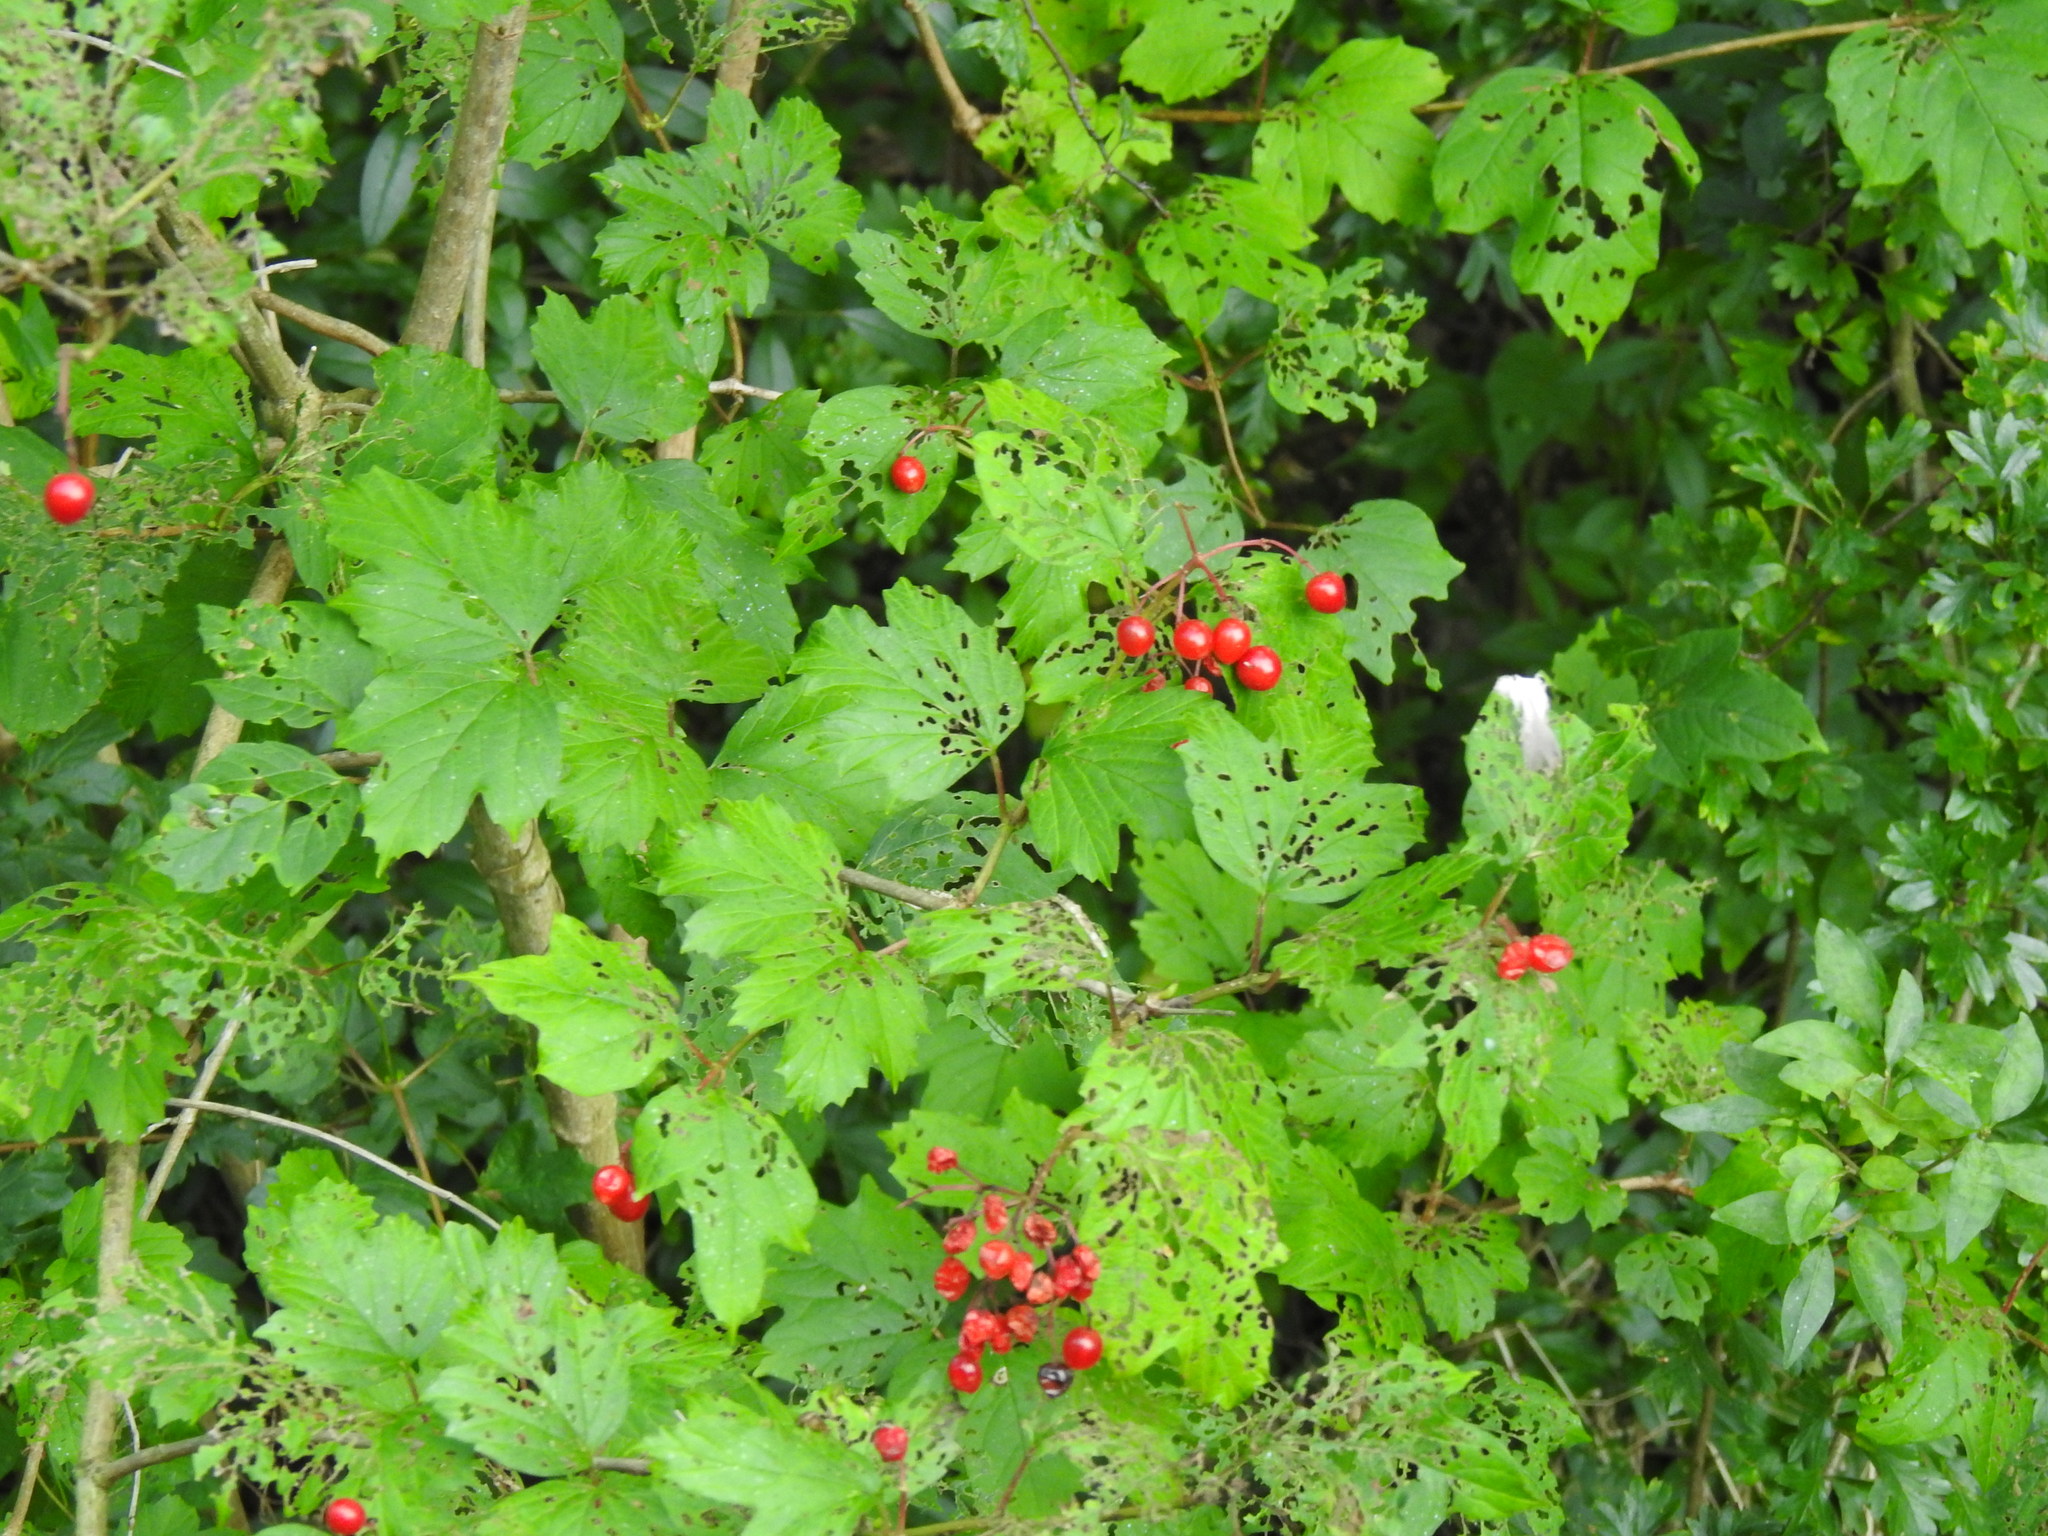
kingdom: Plantae
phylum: Tracheophyta
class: Magnoliopsida
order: Dipsacales
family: Viburnaceae
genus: Viburnum
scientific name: Viburnum opulus
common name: Guelder-rose
